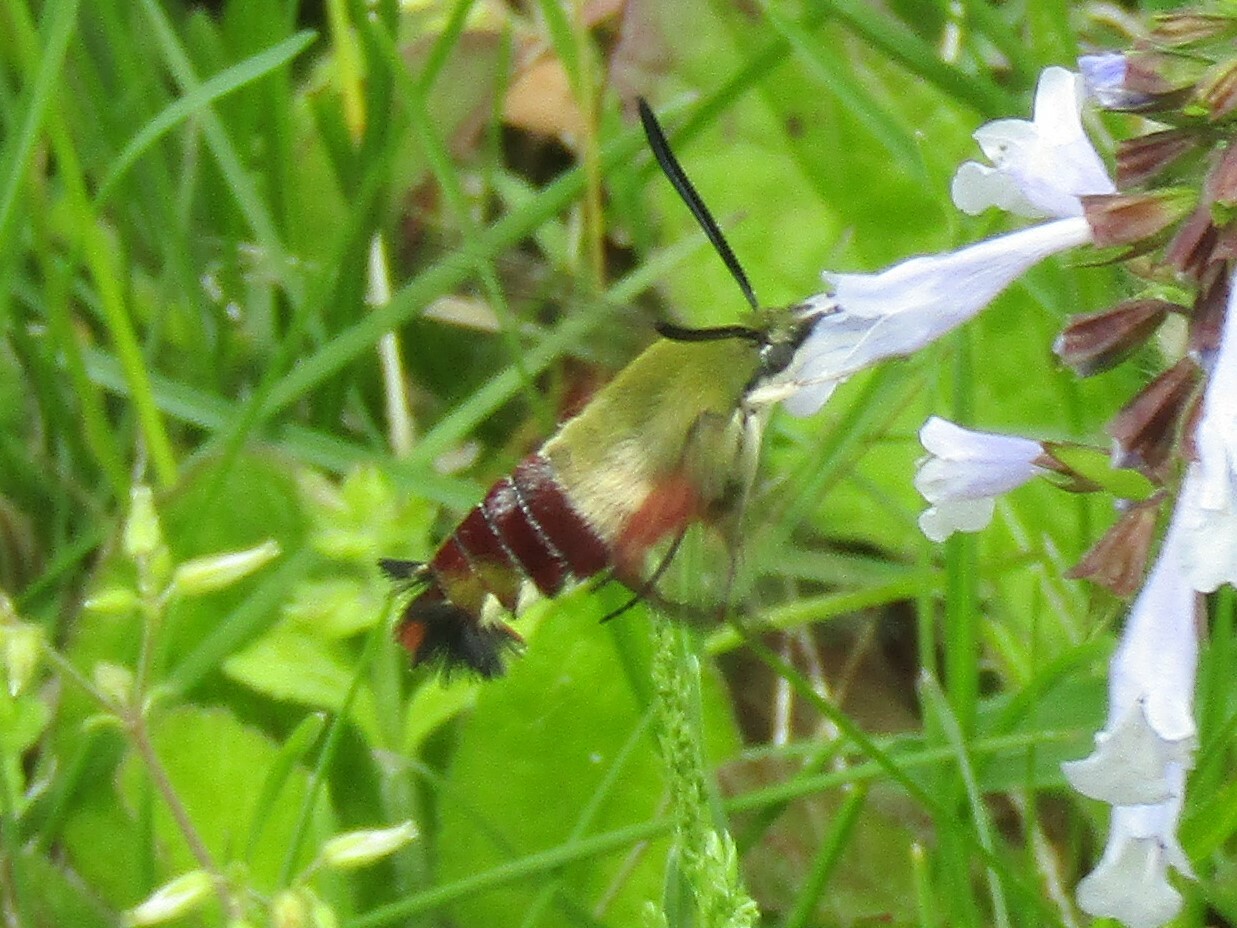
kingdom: Animalia
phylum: Arthropoda
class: Insecta
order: Lepidoptera
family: Sphingidae
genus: Hemaris
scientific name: Hemaris thysbe
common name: Common clear-wing
